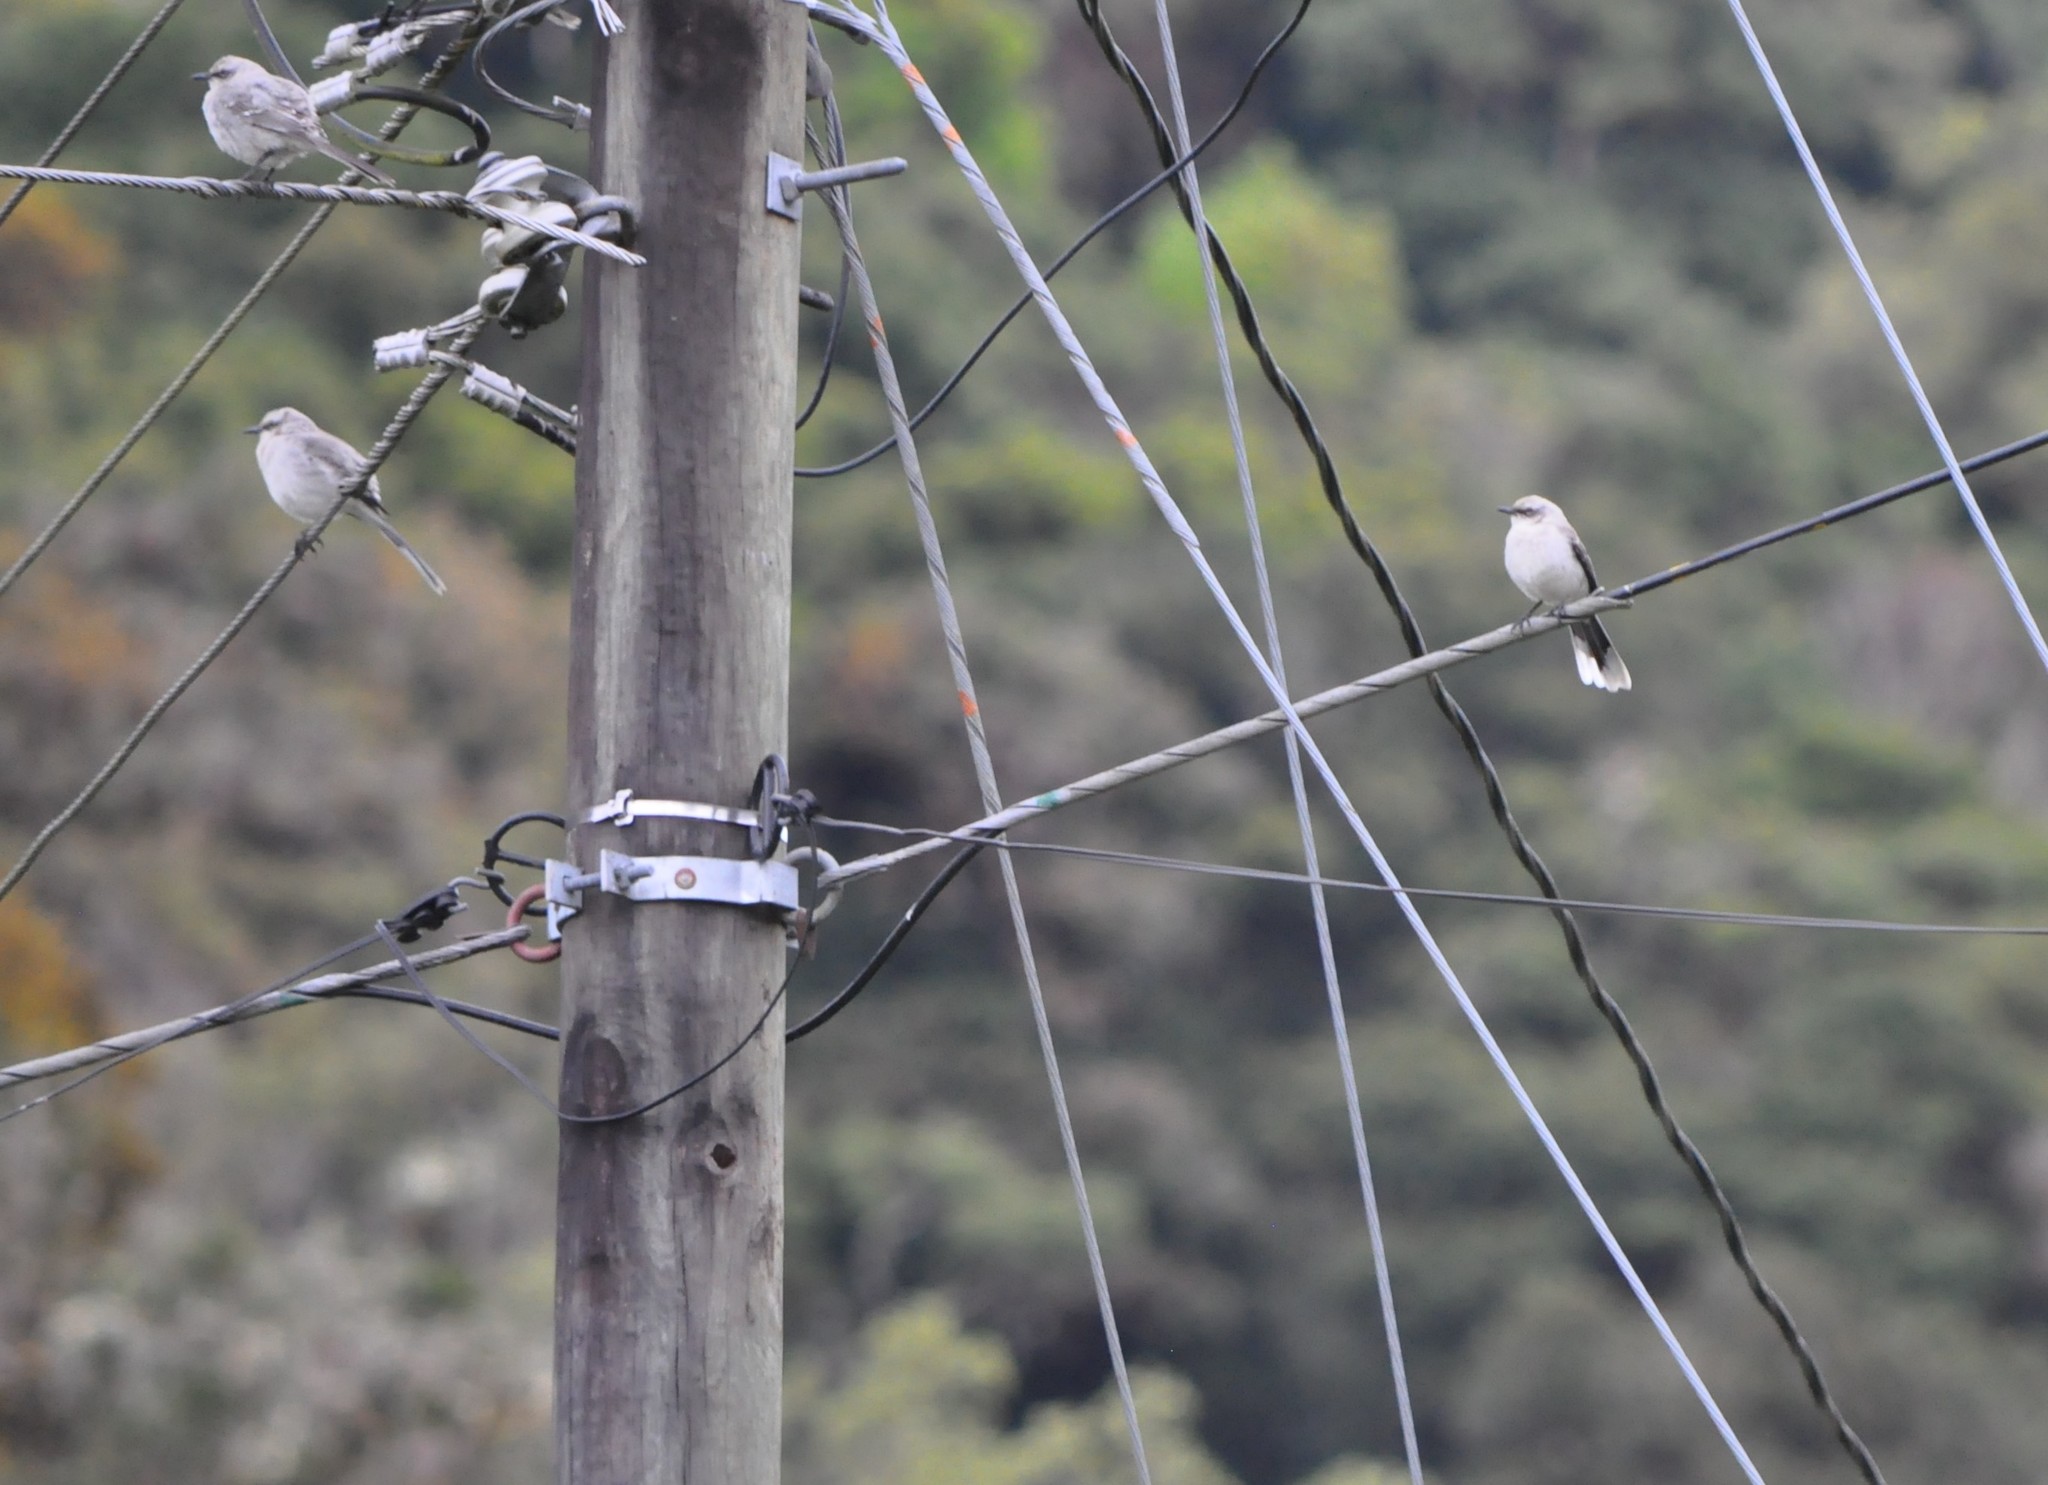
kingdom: Animalia
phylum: Chordata
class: Aves
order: Passeriformes
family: Mimidae
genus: Mimus
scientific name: Mimus gilvus
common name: Tropical mockingbird
